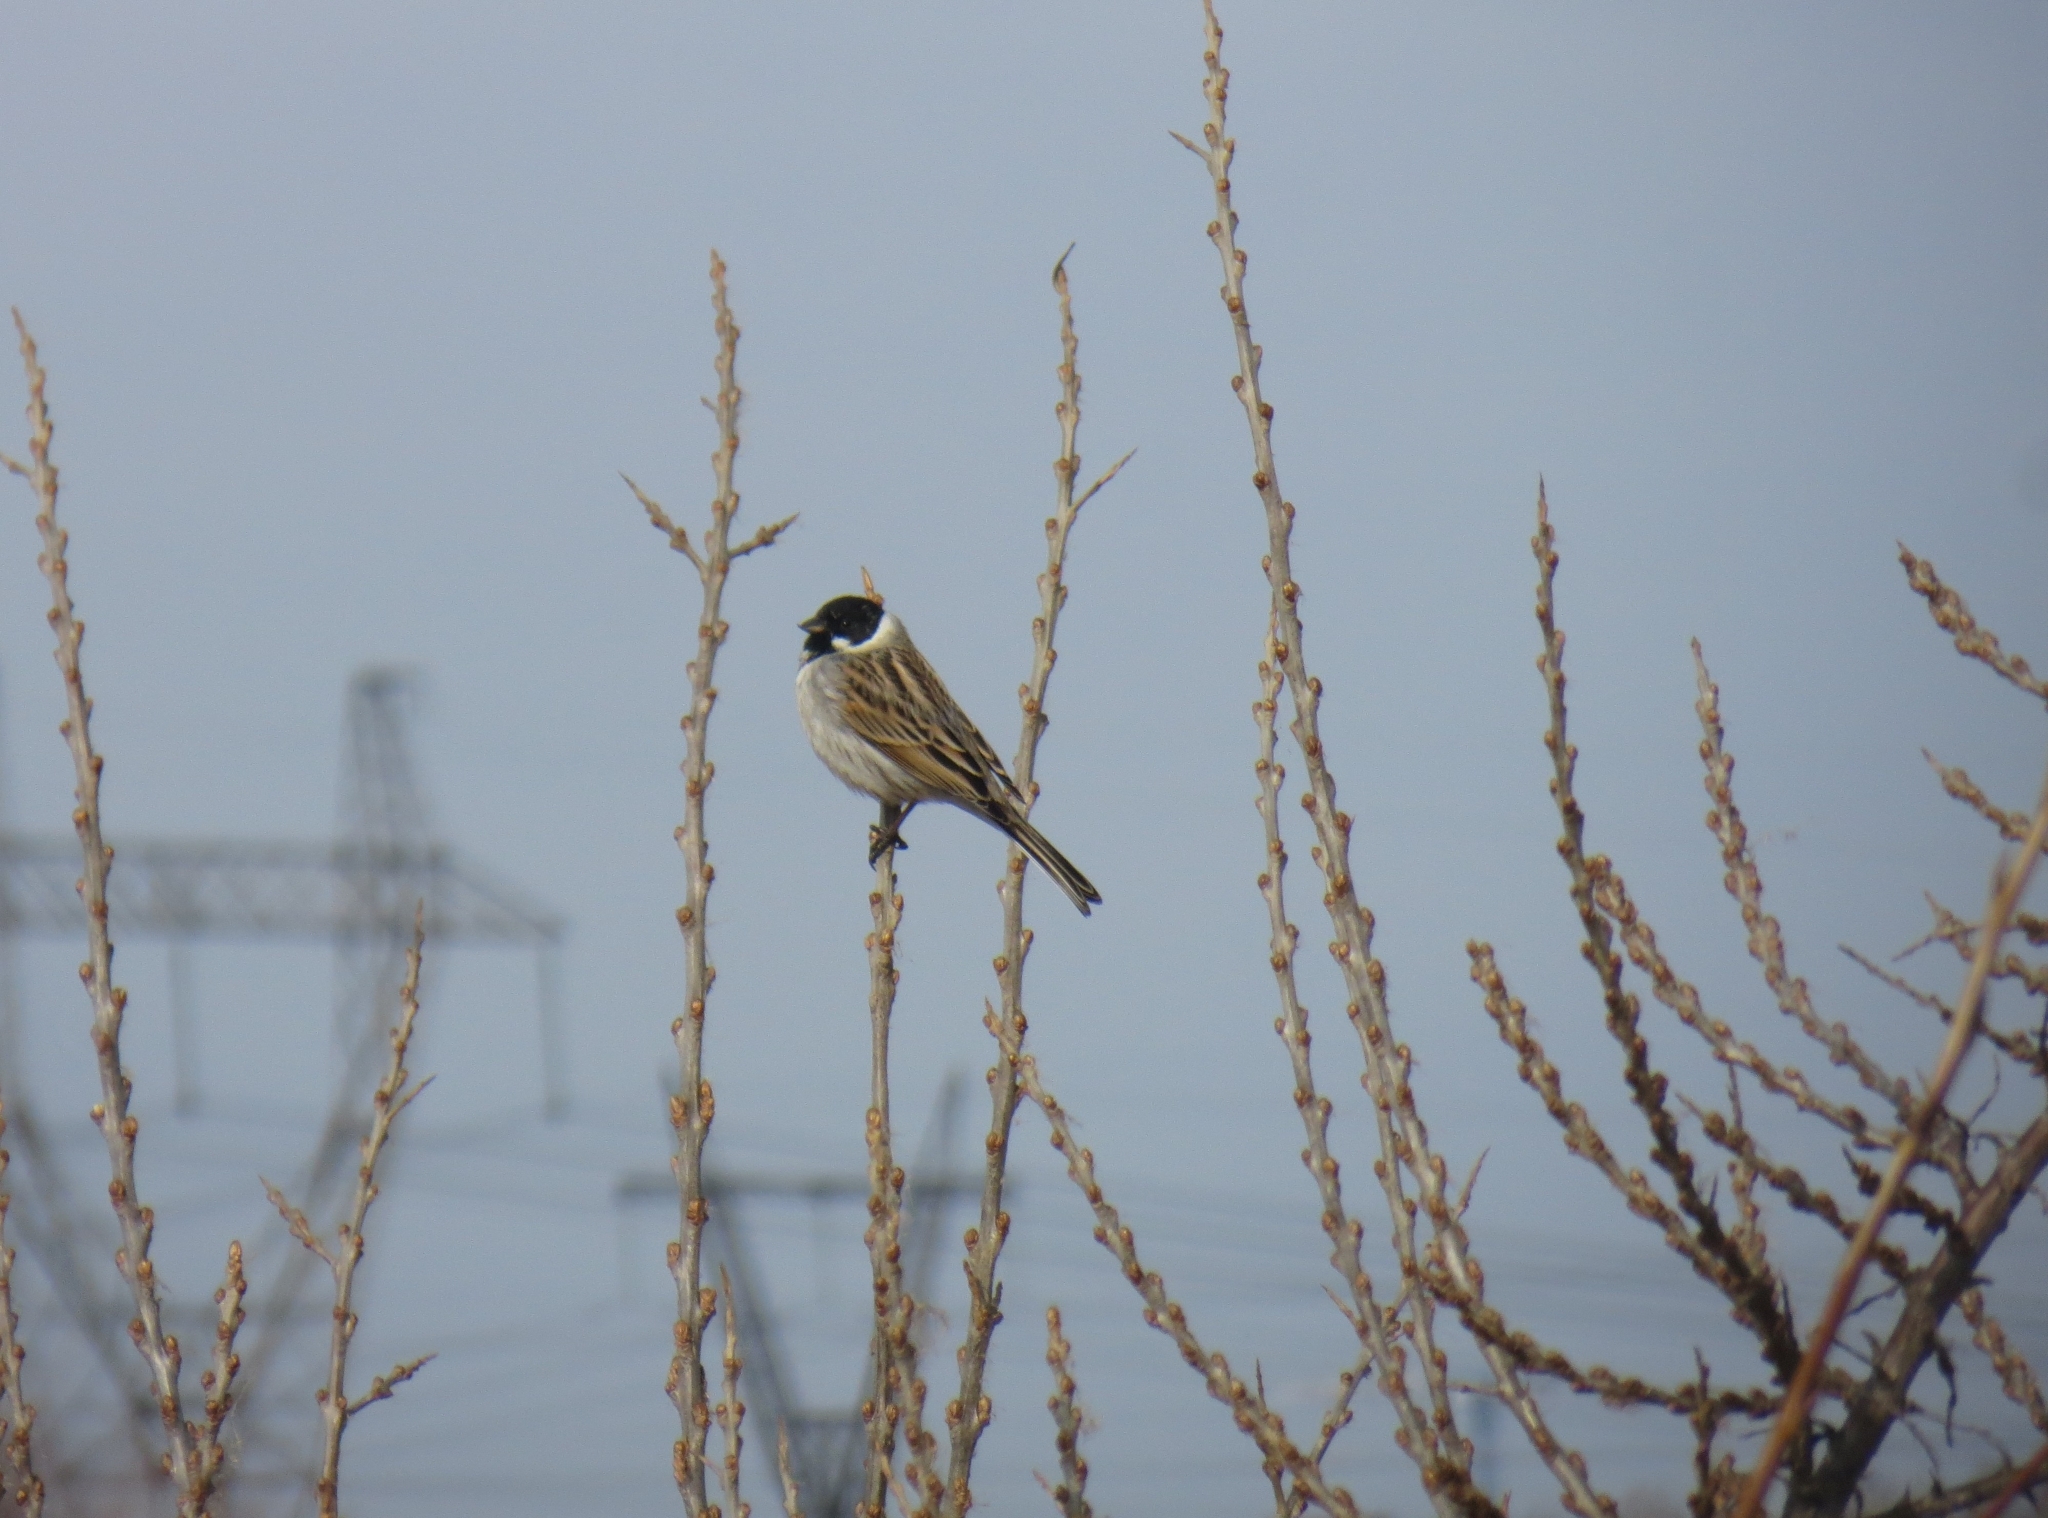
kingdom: Animalia
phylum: Chordata
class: Aves
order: Passeriformes
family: Emberizidae
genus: Emberiza
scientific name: Emberiza schoeniclus
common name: Reed bunting
